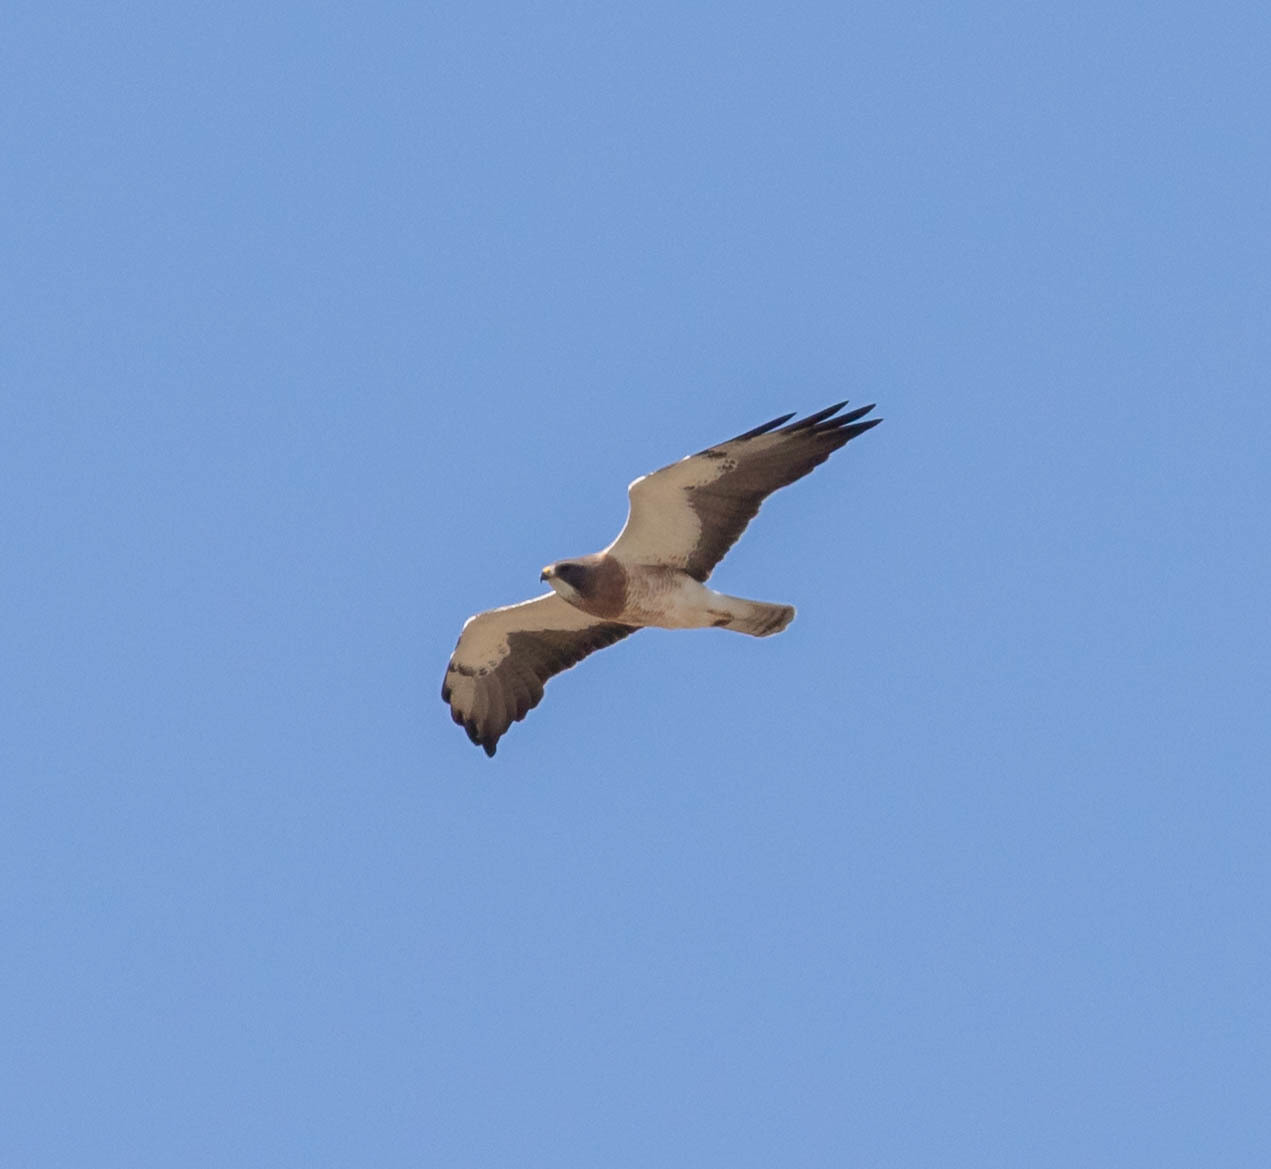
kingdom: Animalia
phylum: Chordata
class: Aves
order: Accipitriformes
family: Accipitridae
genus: Buteo
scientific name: Buteo swainsoni
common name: Swainson's hawk
